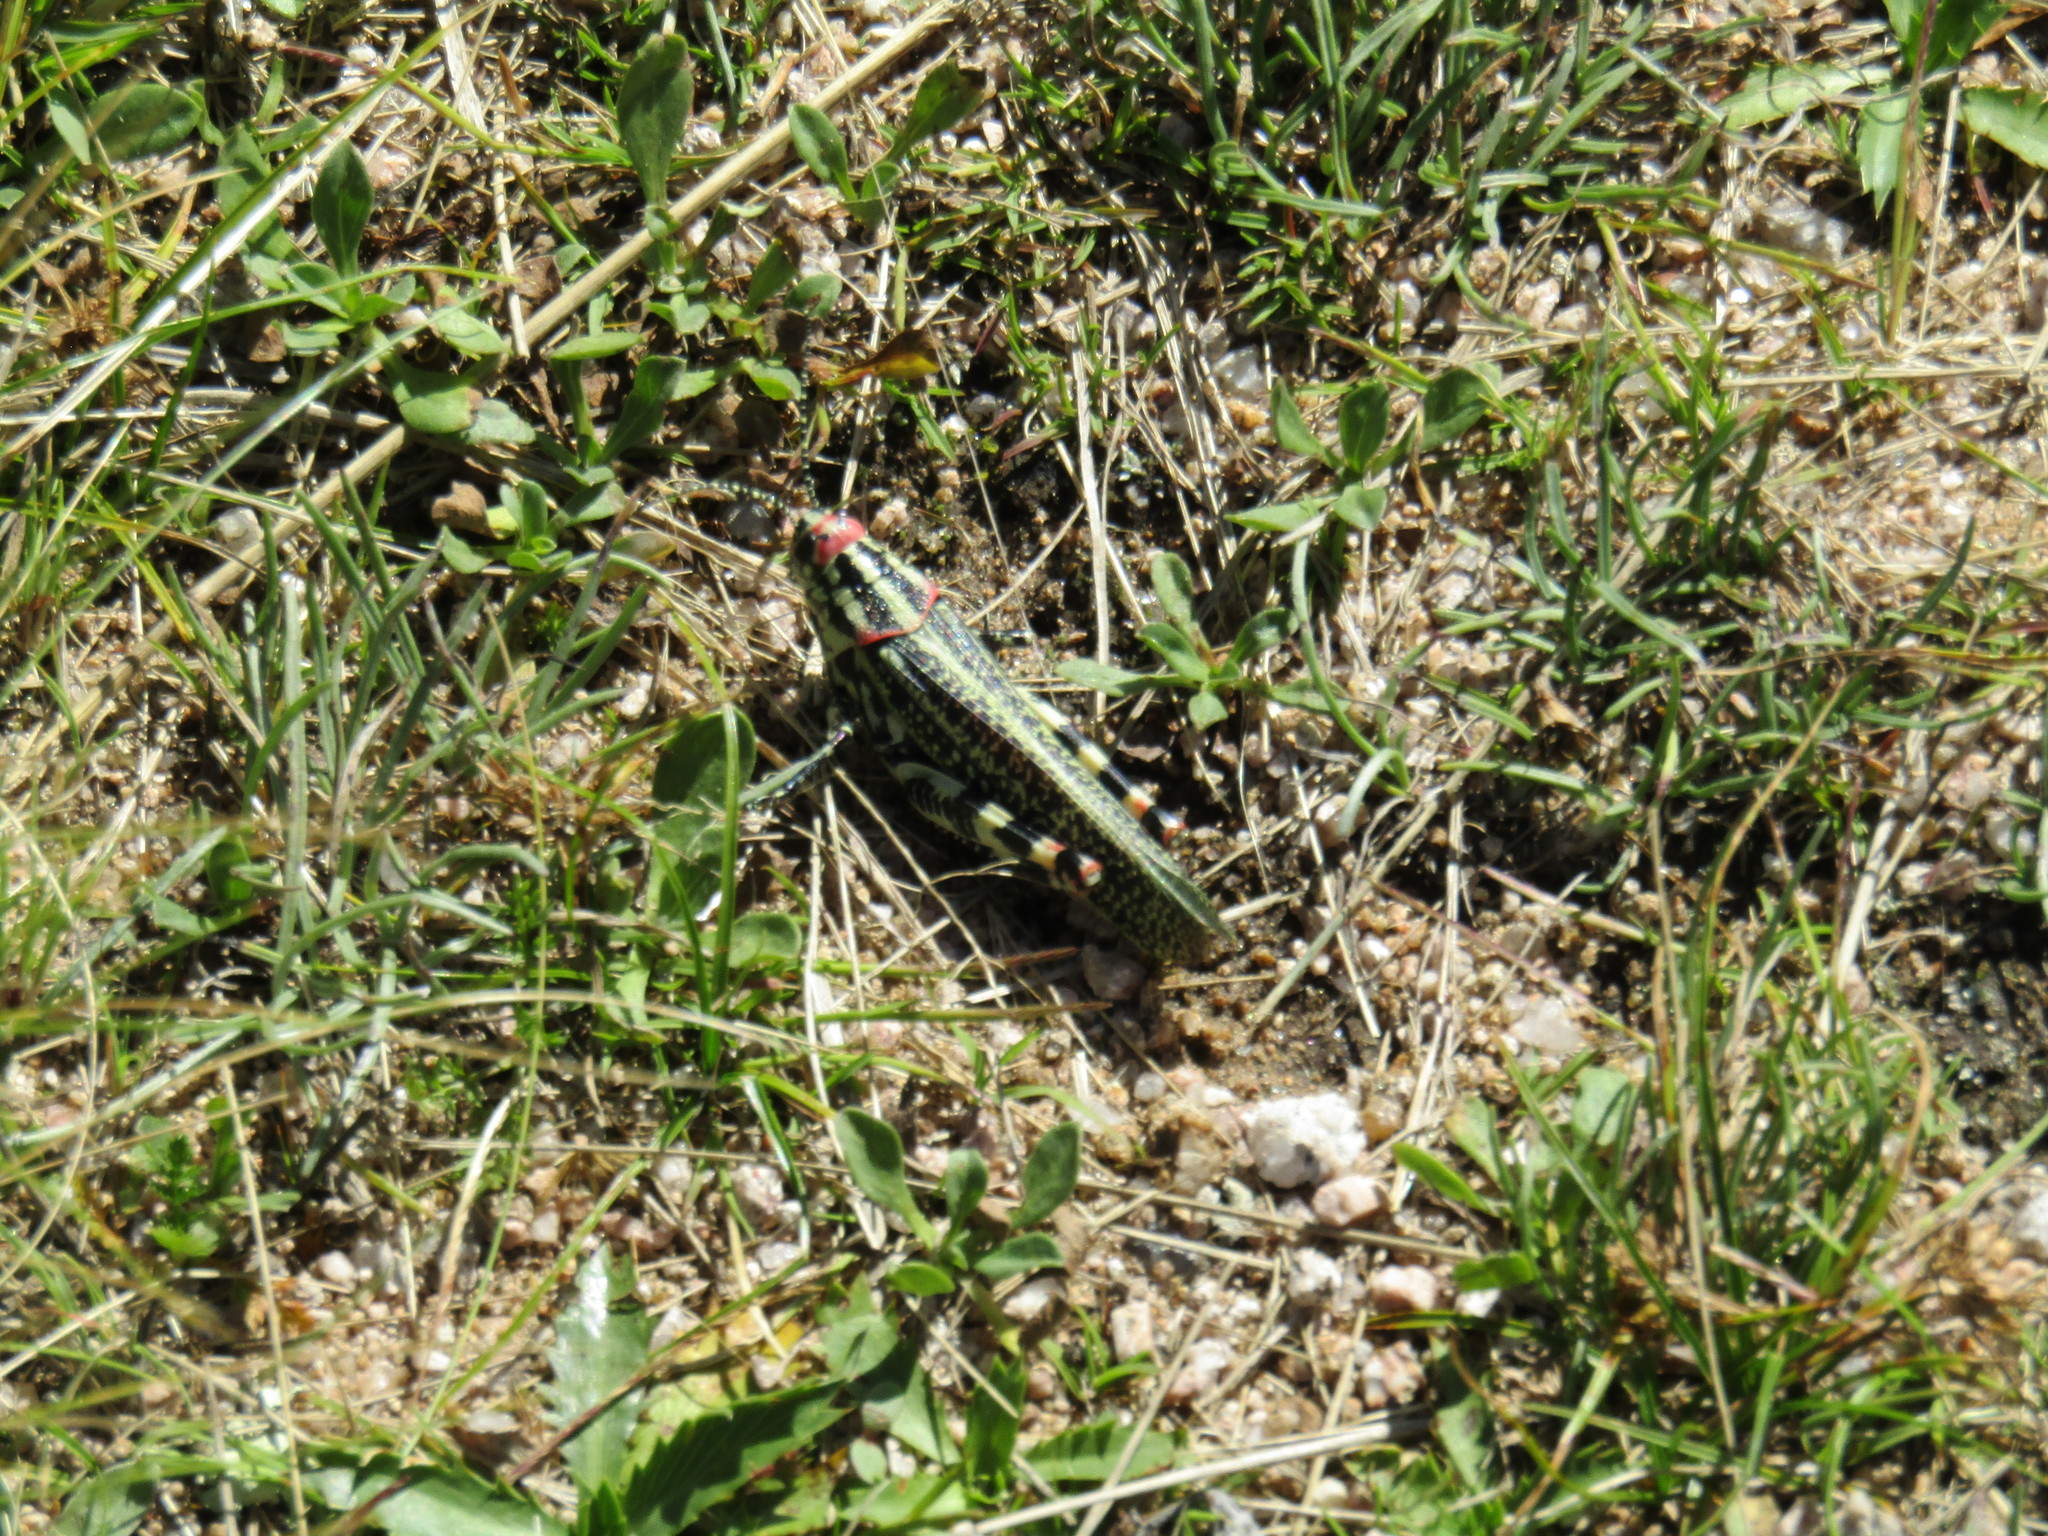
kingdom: Animalia
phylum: Arthropoda
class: Insecta
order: Orthoptera
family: Romaleidae
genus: Diponthus
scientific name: Diponthus puelchus
